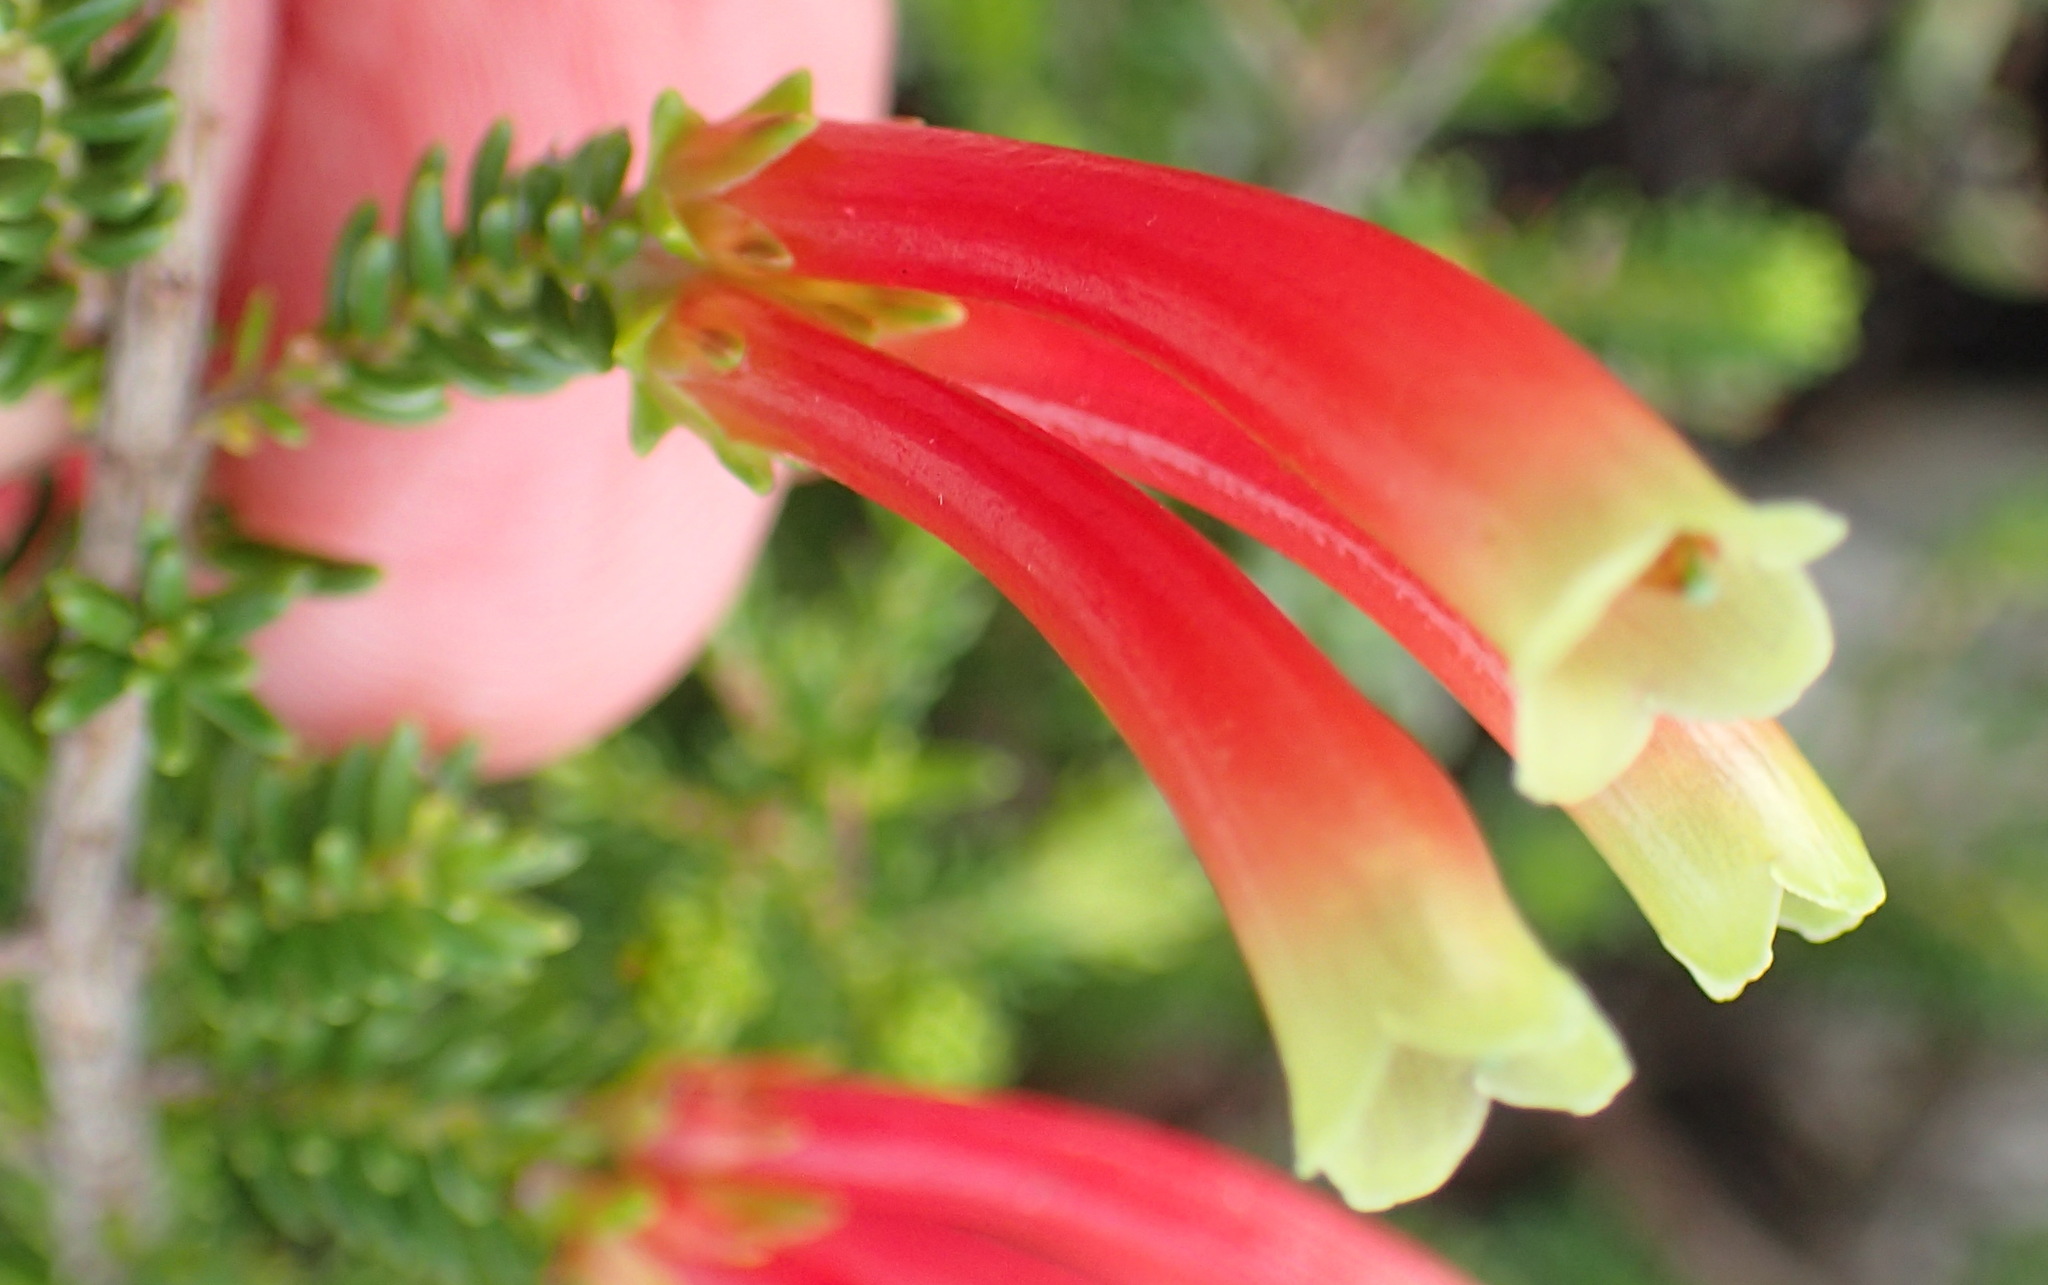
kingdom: Plantae
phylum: Tracheophyta
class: Magnoliopsida
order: Ericales
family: Ericaceae
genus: Erica
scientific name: Erica discolor
